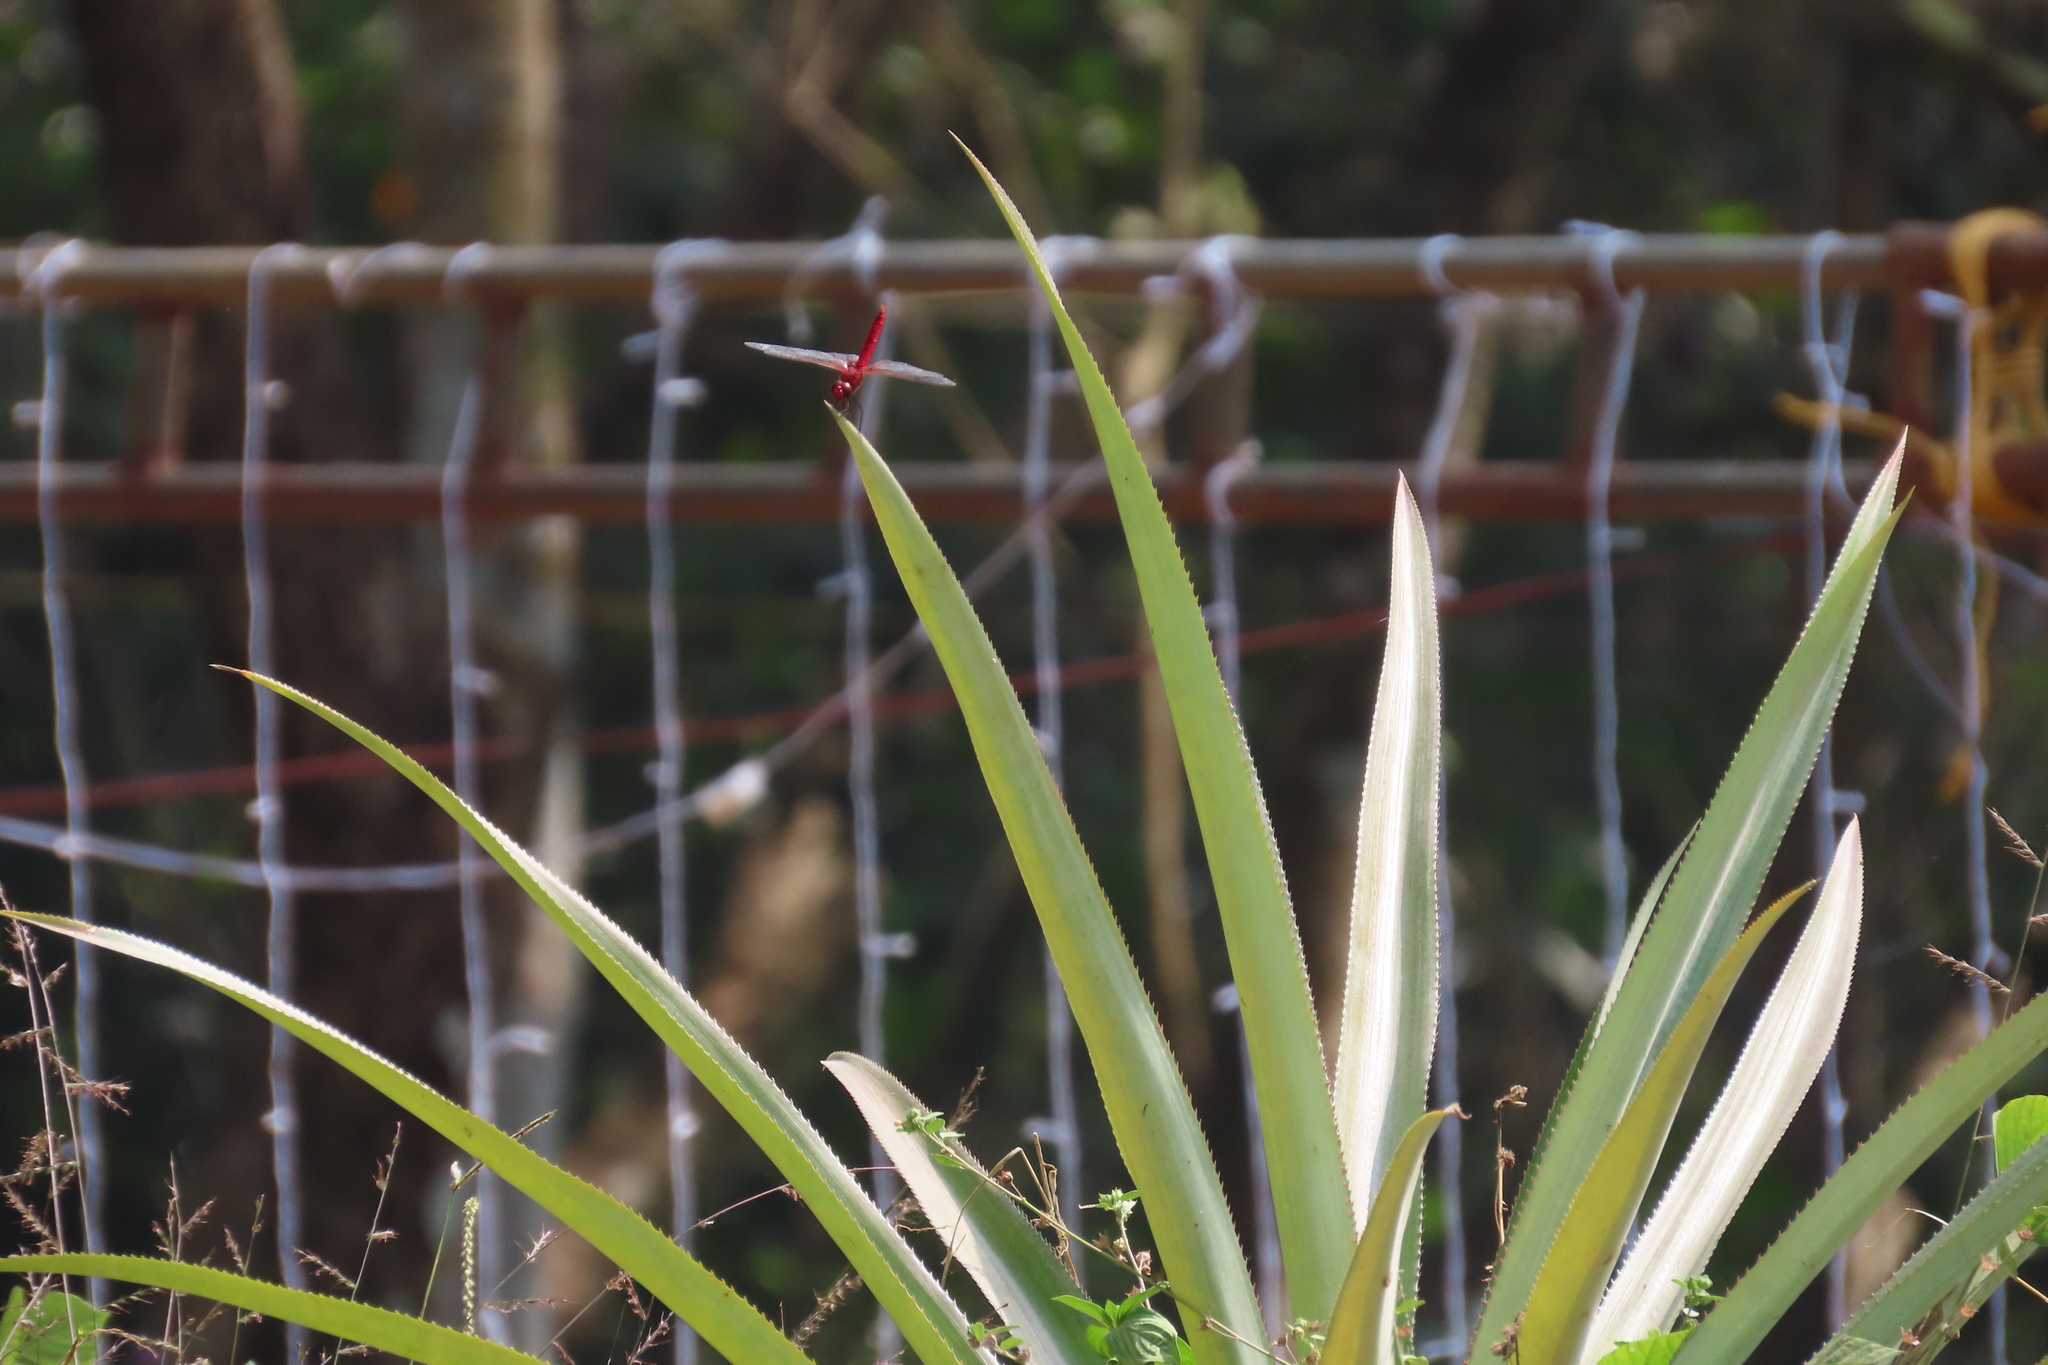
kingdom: Animalia
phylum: Arthropoda
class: Insecta
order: Odonata
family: Libellulidae
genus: Urothemis
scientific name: Urothemis signata
